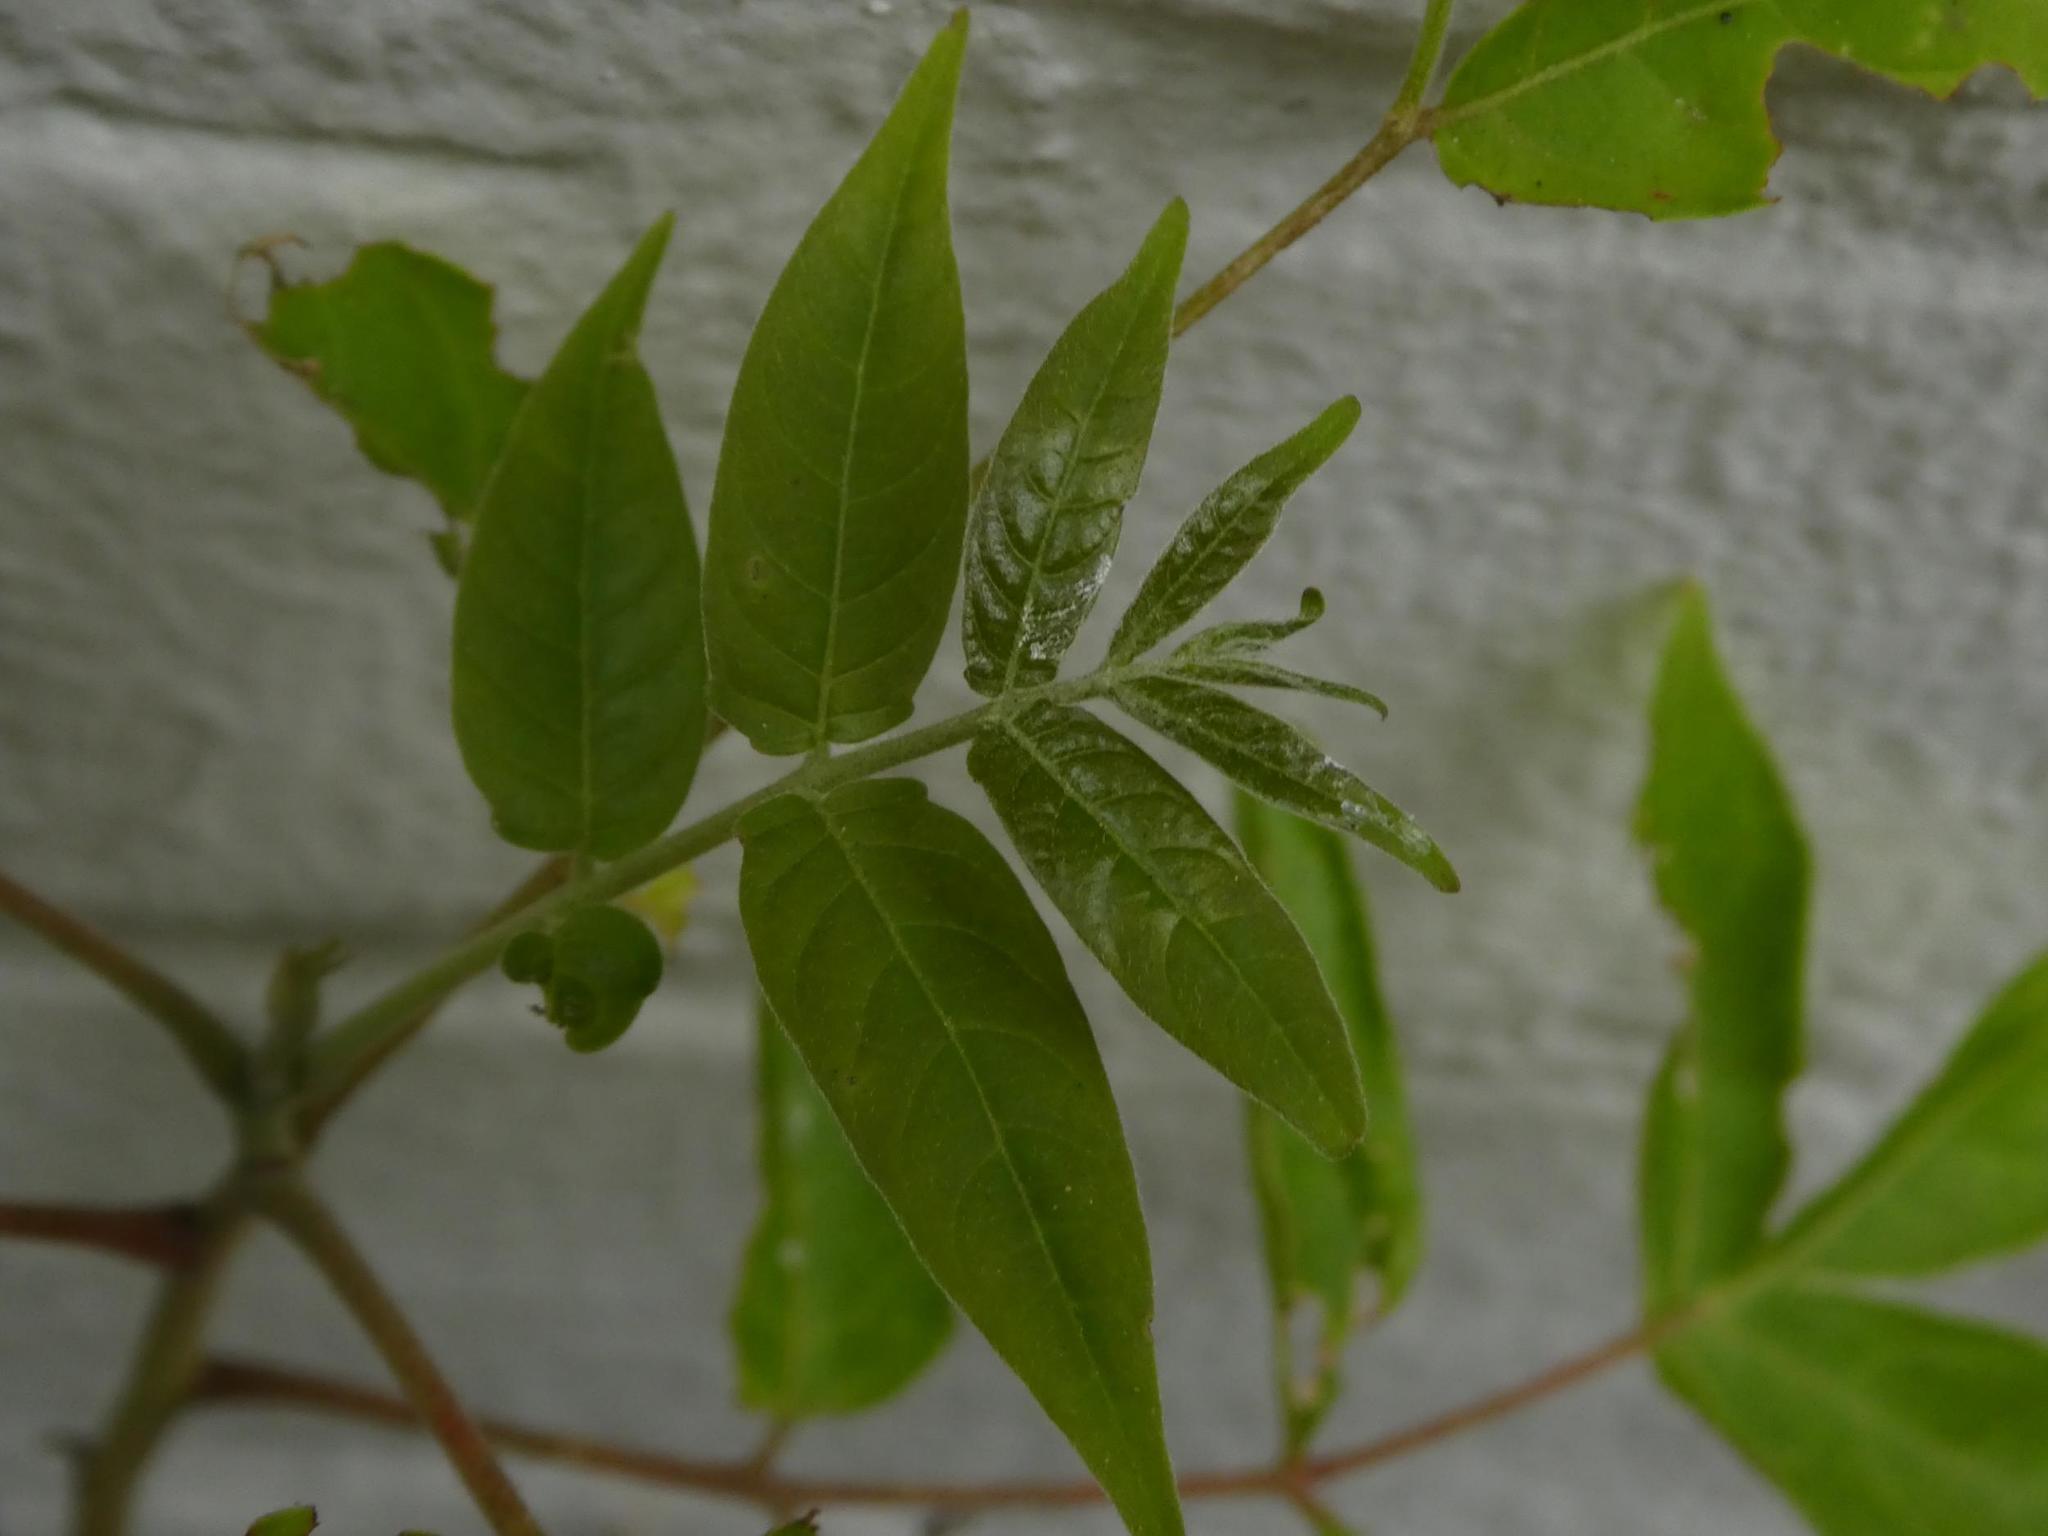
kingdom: Plantae
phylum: Tracheophyta
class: Magnoliopsida
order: Sapindales
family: Simaroubaceae
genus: Ailanthus
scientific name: Ailanthus altissima
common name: Tree-of-heaven
